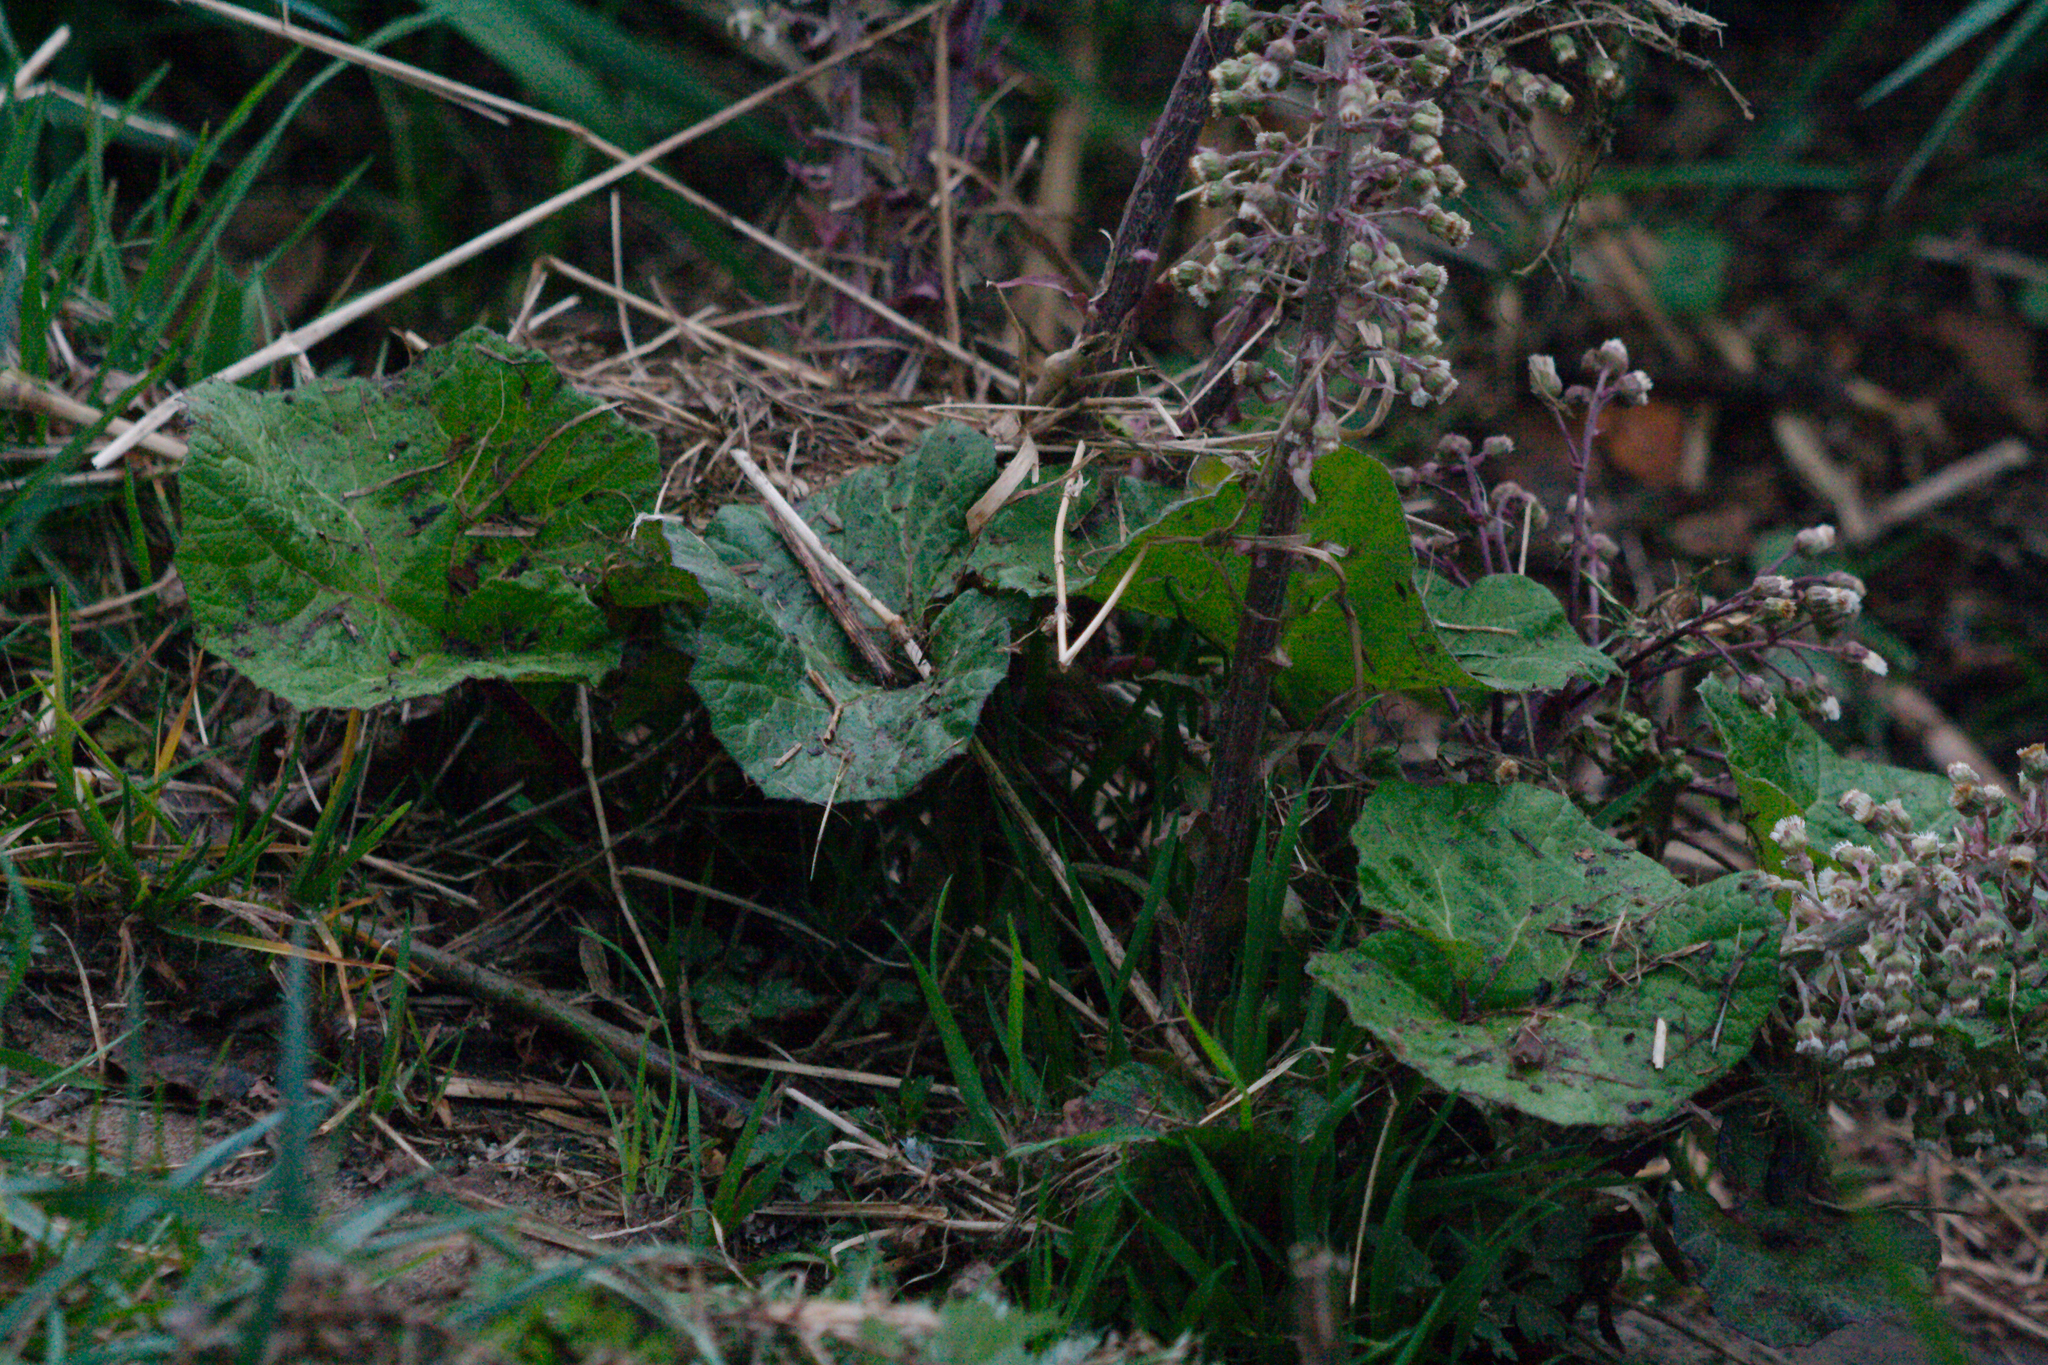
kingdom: Plantae
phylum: Tracheophyta
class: Magnoliopsida
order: Asterales
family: Asteraceae
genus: Petasites
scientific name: Petasites hybridus
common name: Butterbur
